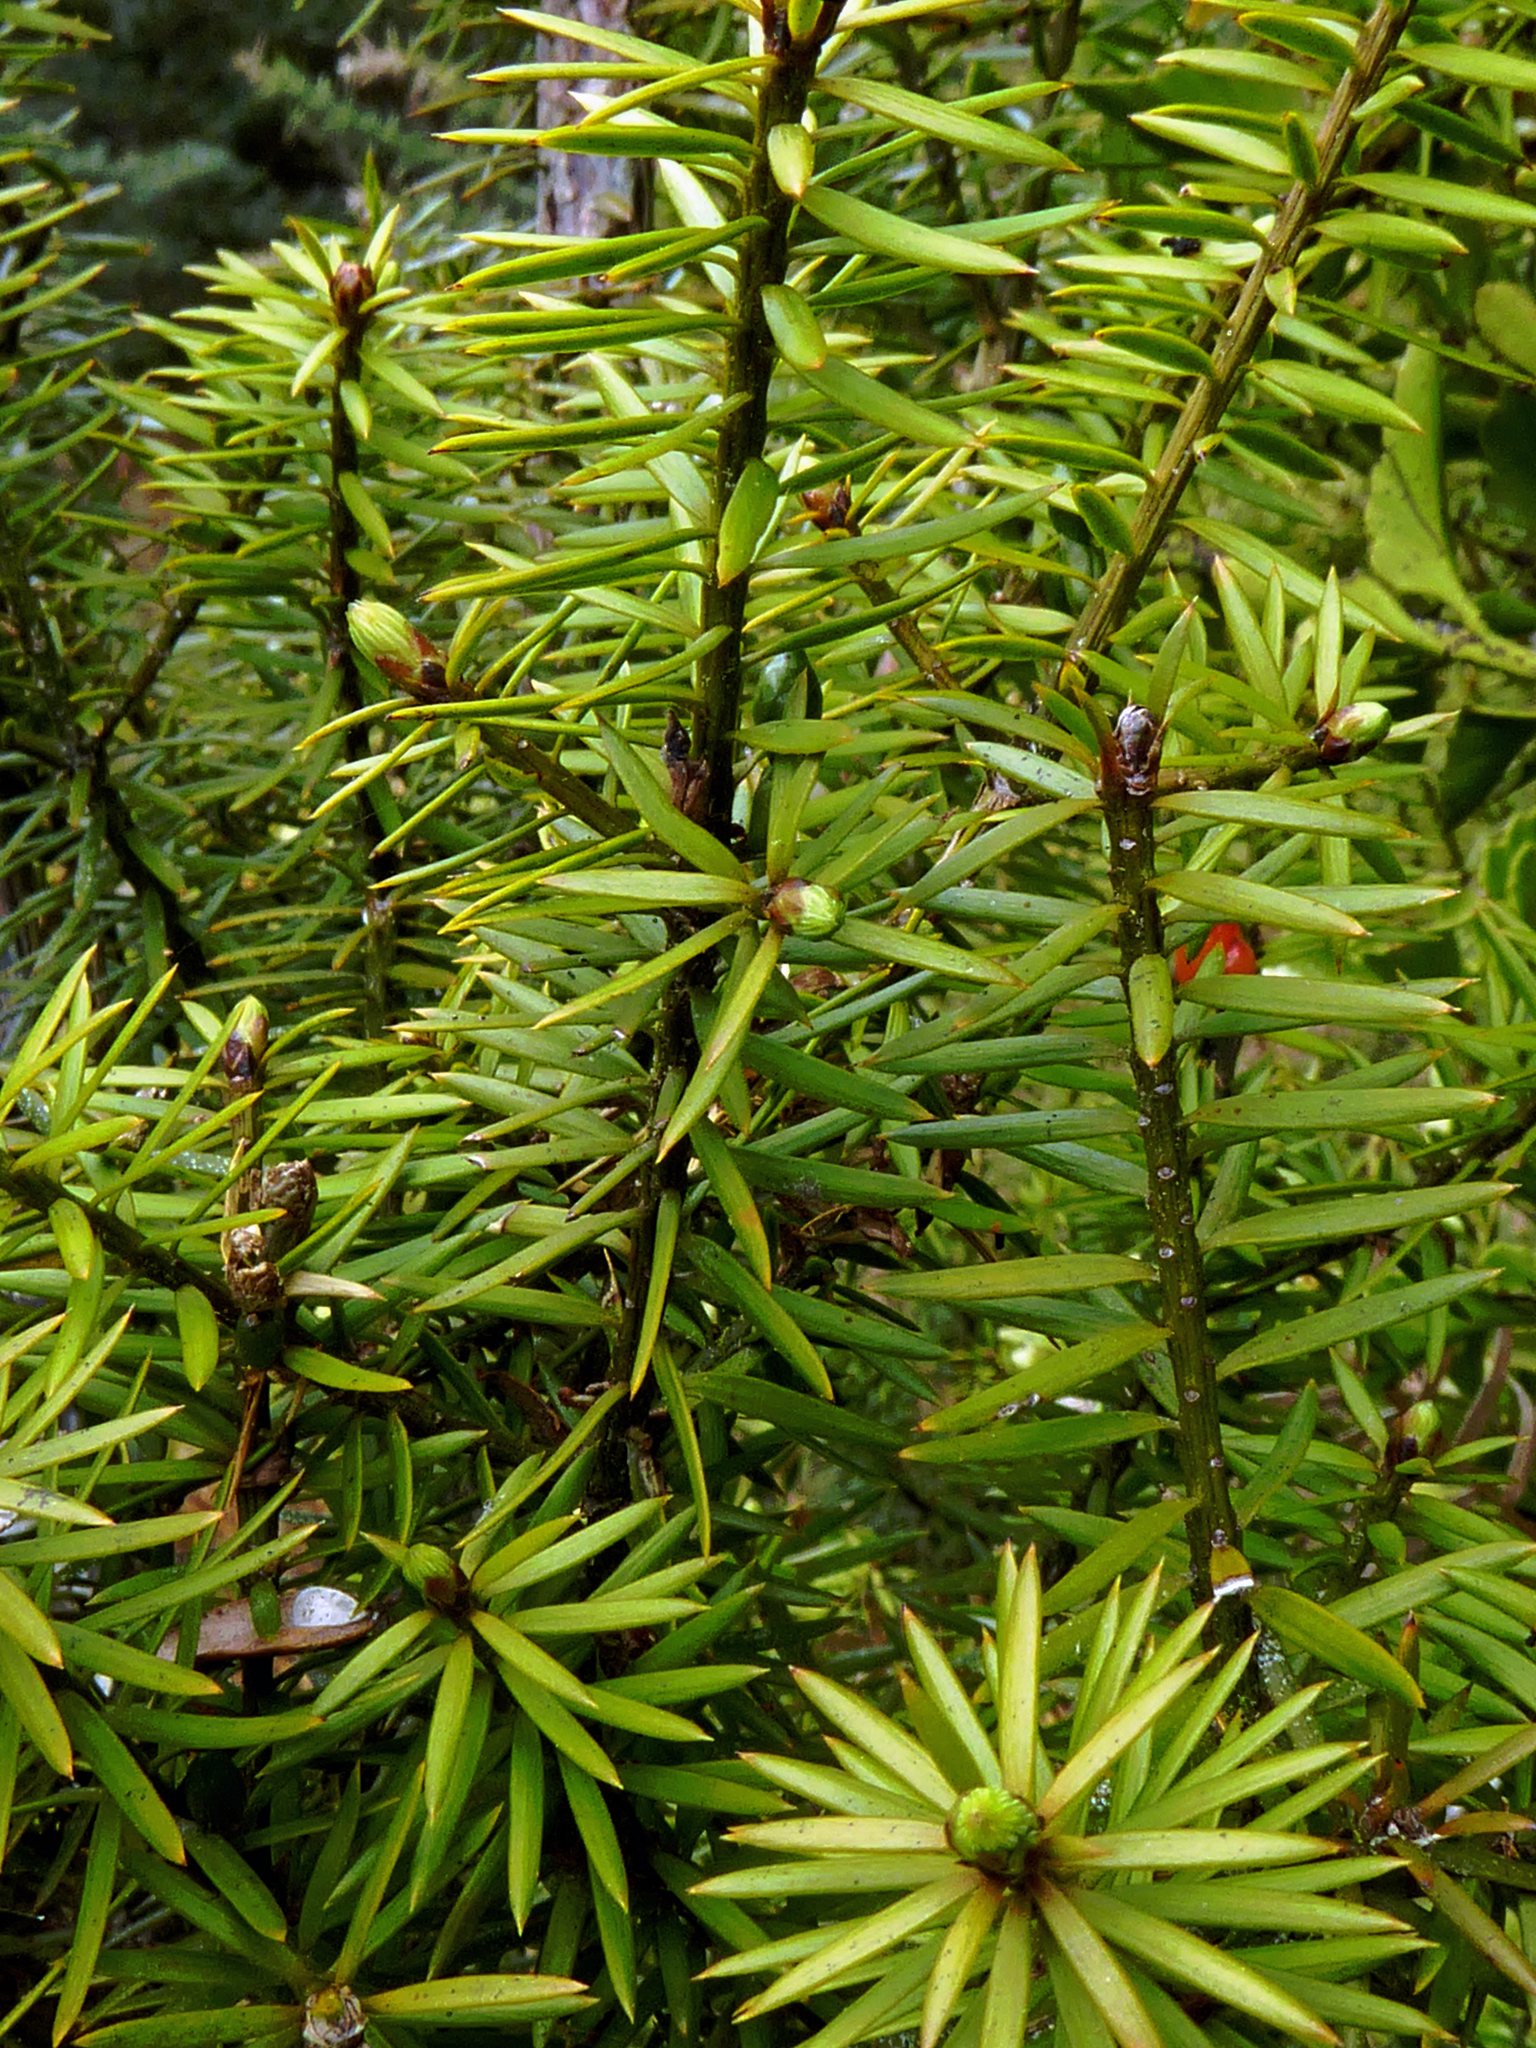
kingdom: Plantae
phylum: Tracheophyta
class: Pinopsida
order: Pinales
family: Podocarpaceae
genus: Podocarpus
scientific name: Podocarpus acutifolius
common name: Needle-leaved totara
